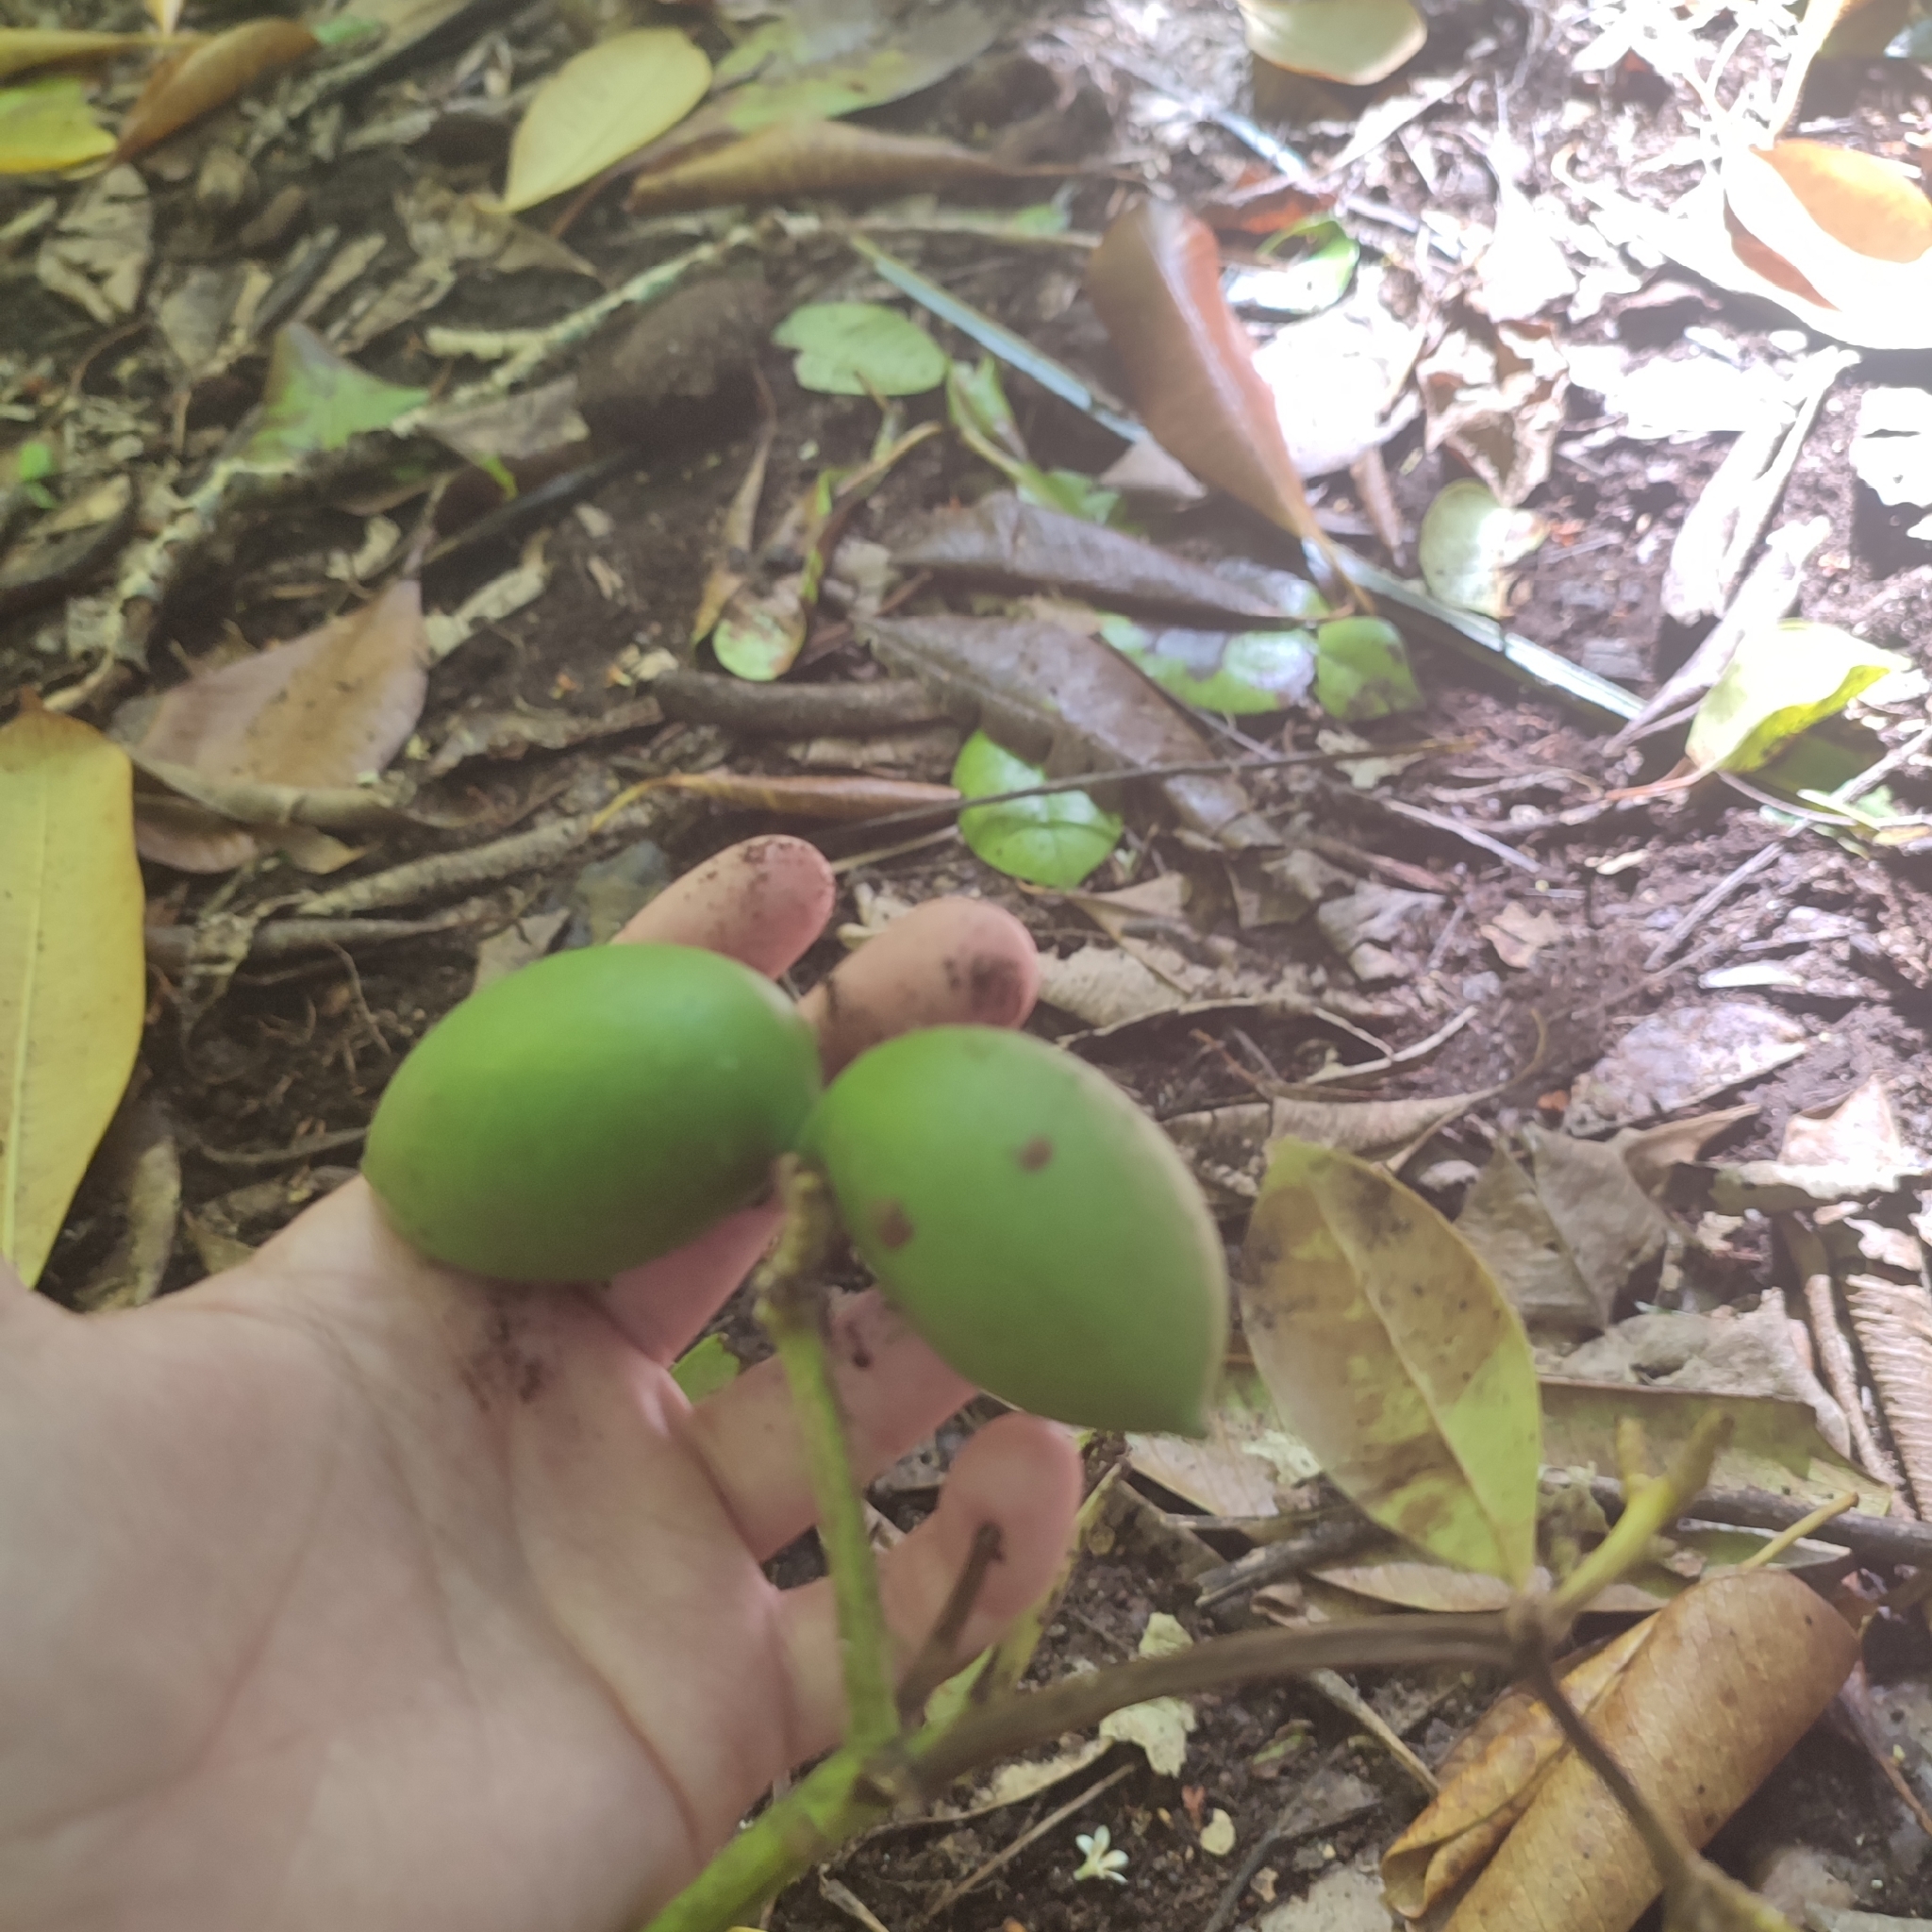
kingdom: Plantae
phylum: Tracheophyta
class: Magnoliopsida
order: Gentianales
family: Apocynaceae
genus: Ochrosia
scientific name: Ochrosia oppositifolia
